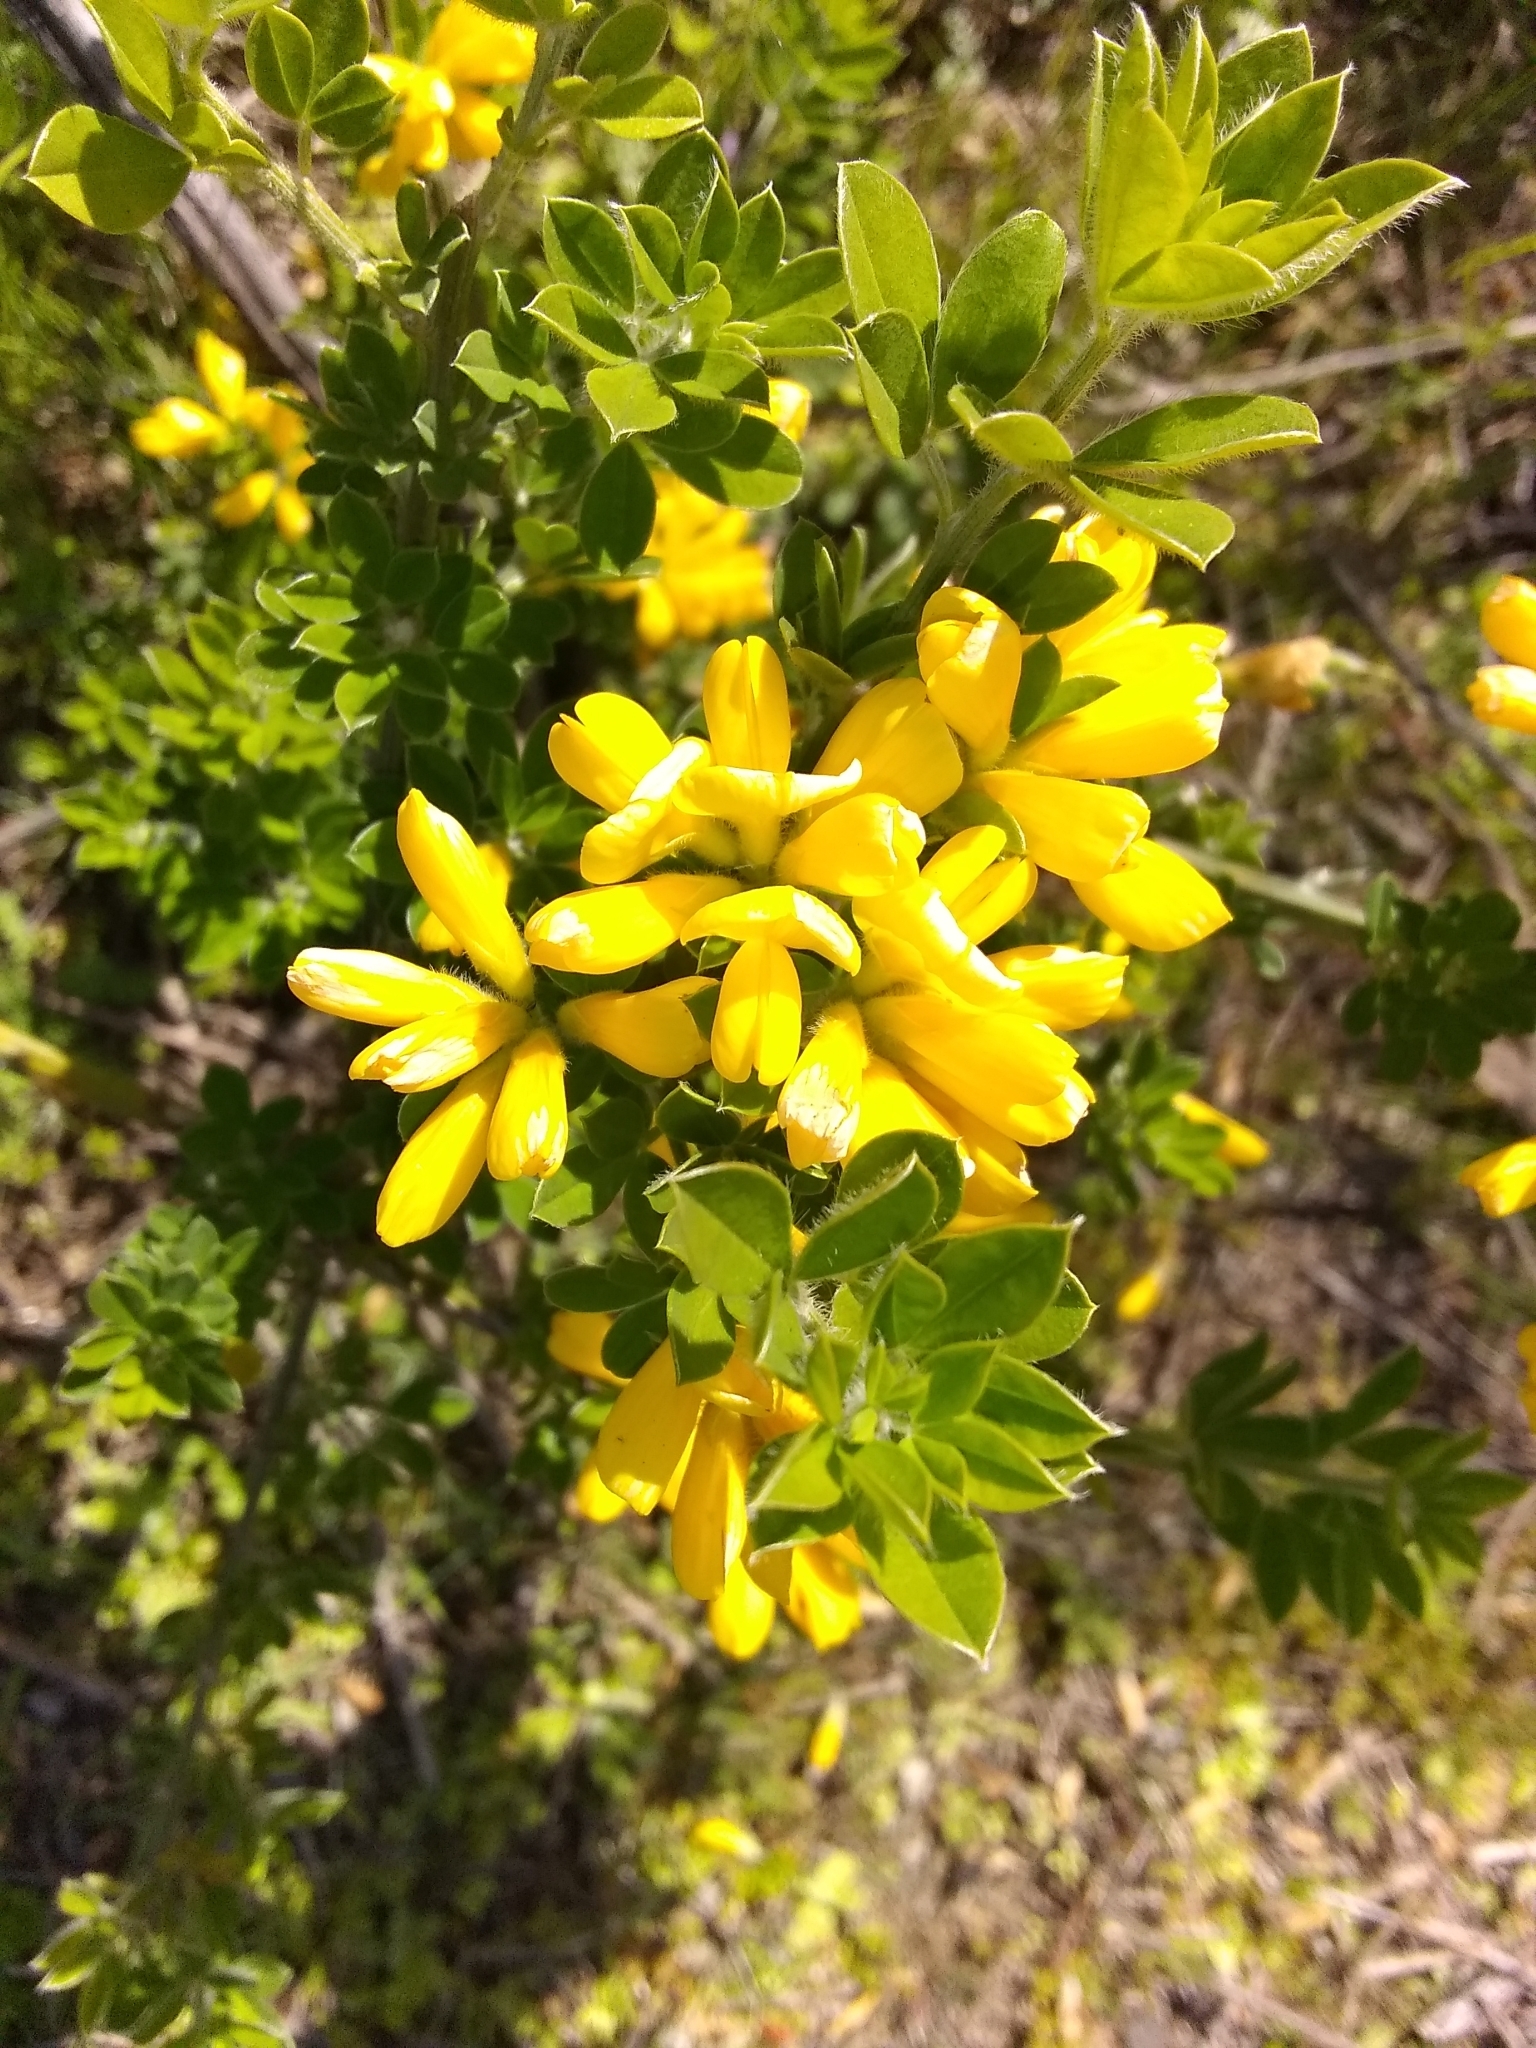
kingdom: Plantae
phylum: Tracheophyta
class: Magnoliopsida
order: Fabales
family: Fabaceae
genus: Genista
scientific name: Genista monspessulana
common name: Montpellier broom
